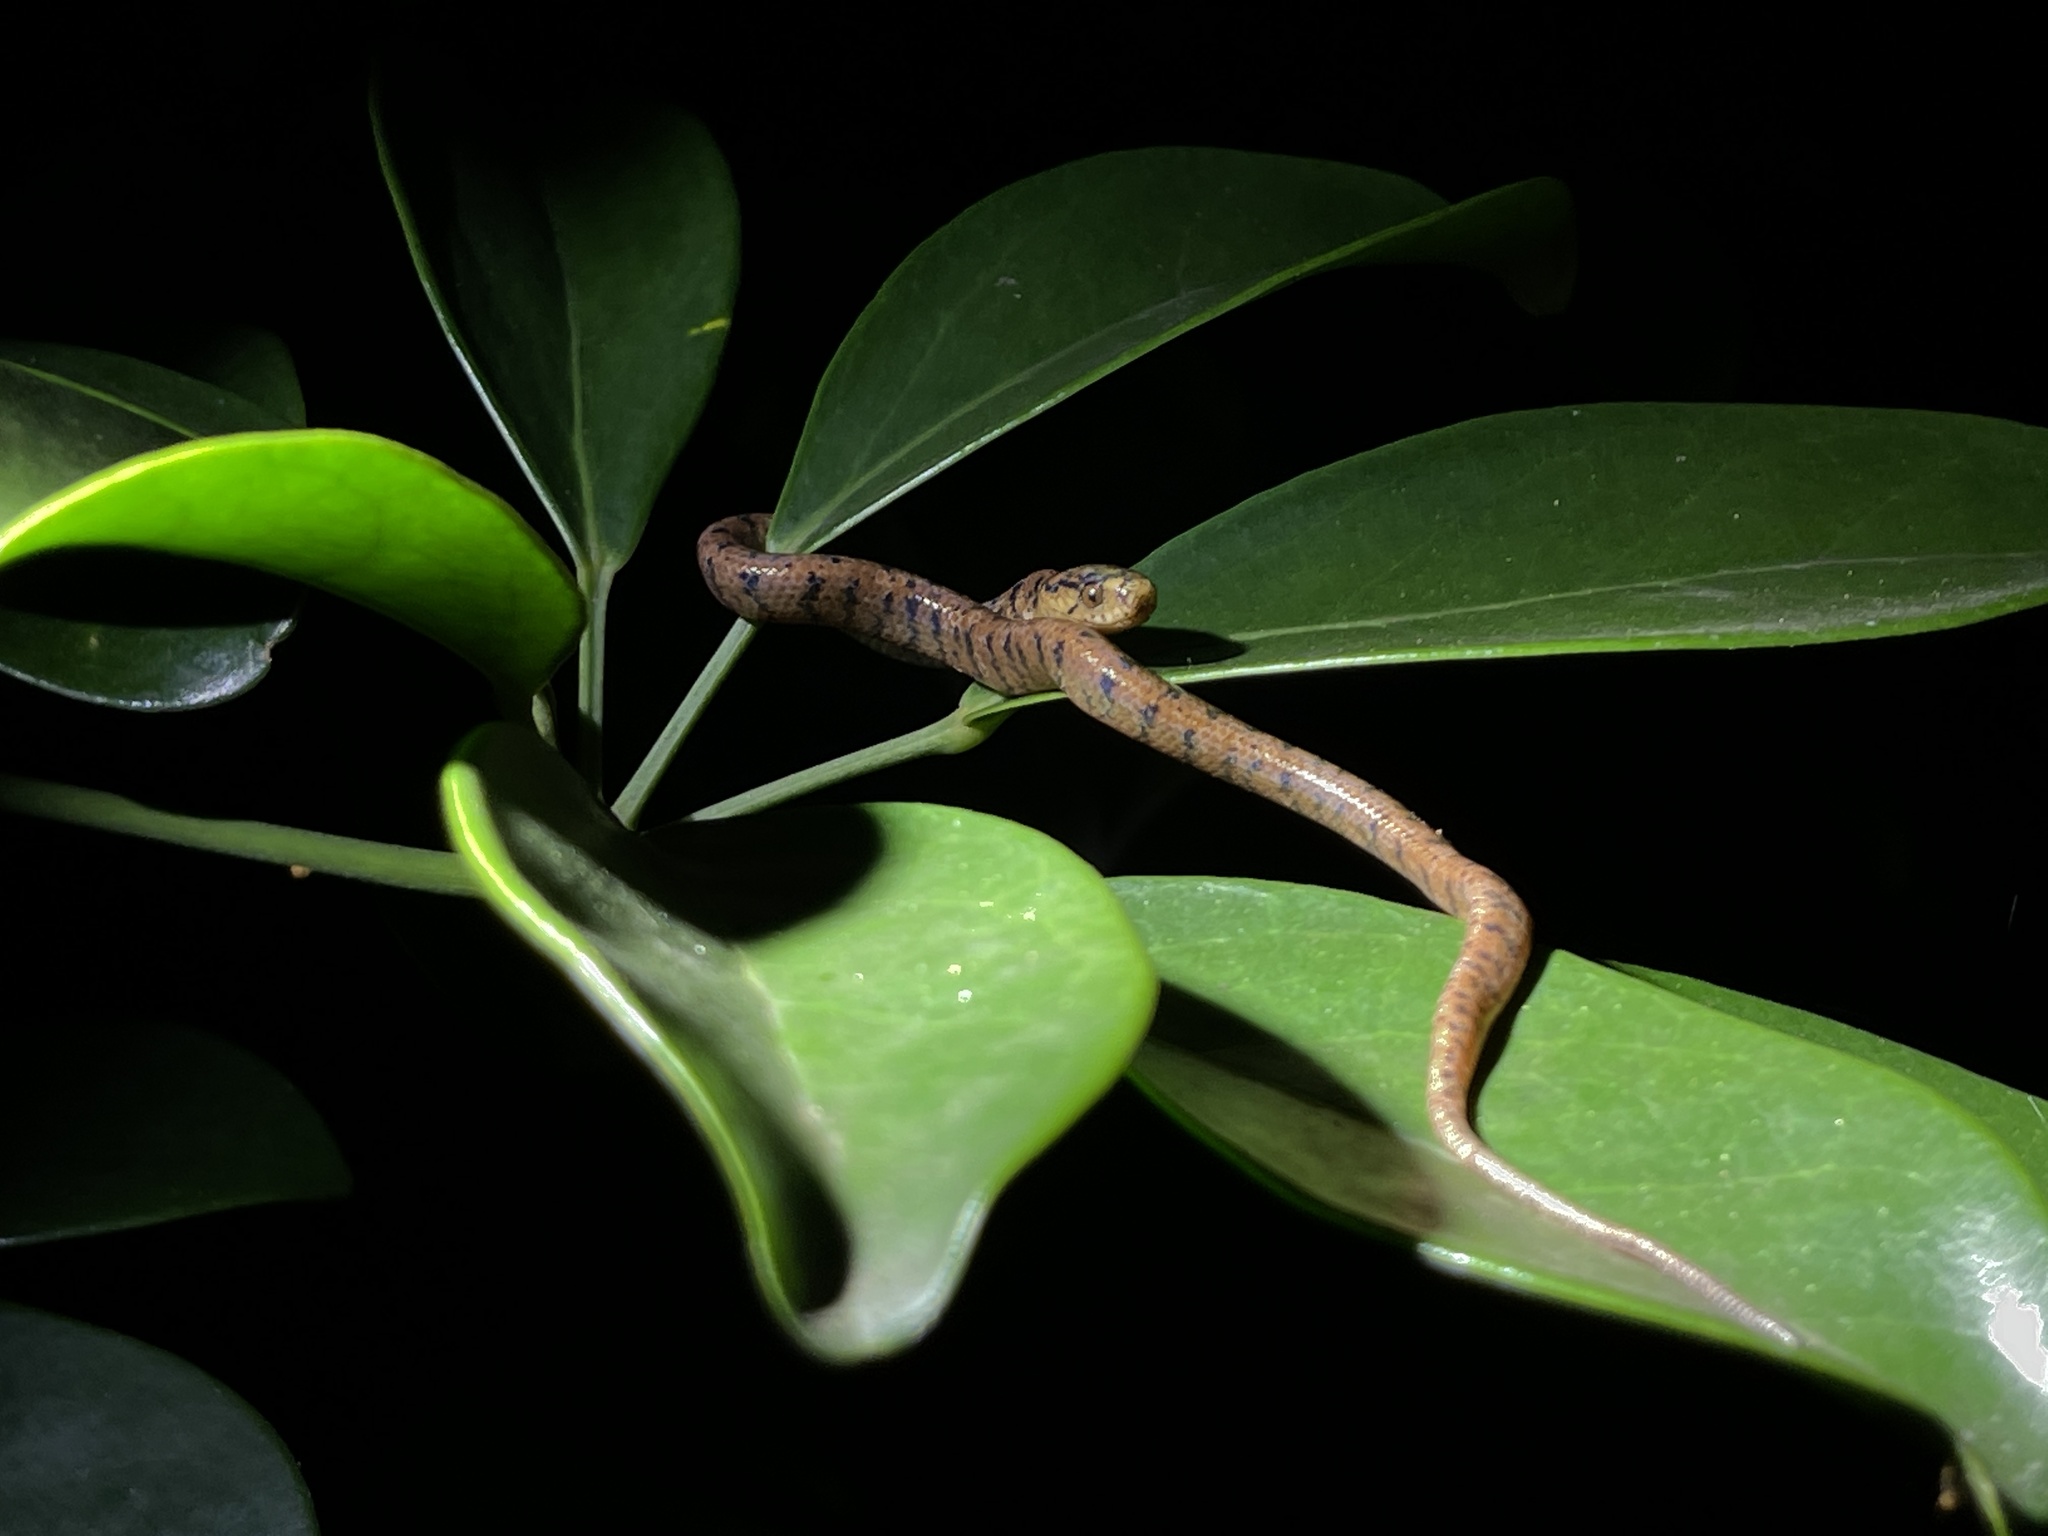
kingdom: Animalia
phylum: Chordata
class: Squamata
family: Pareidae
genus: Pareas
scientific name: Pareas atayal
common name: Atayal slug-eating snake
